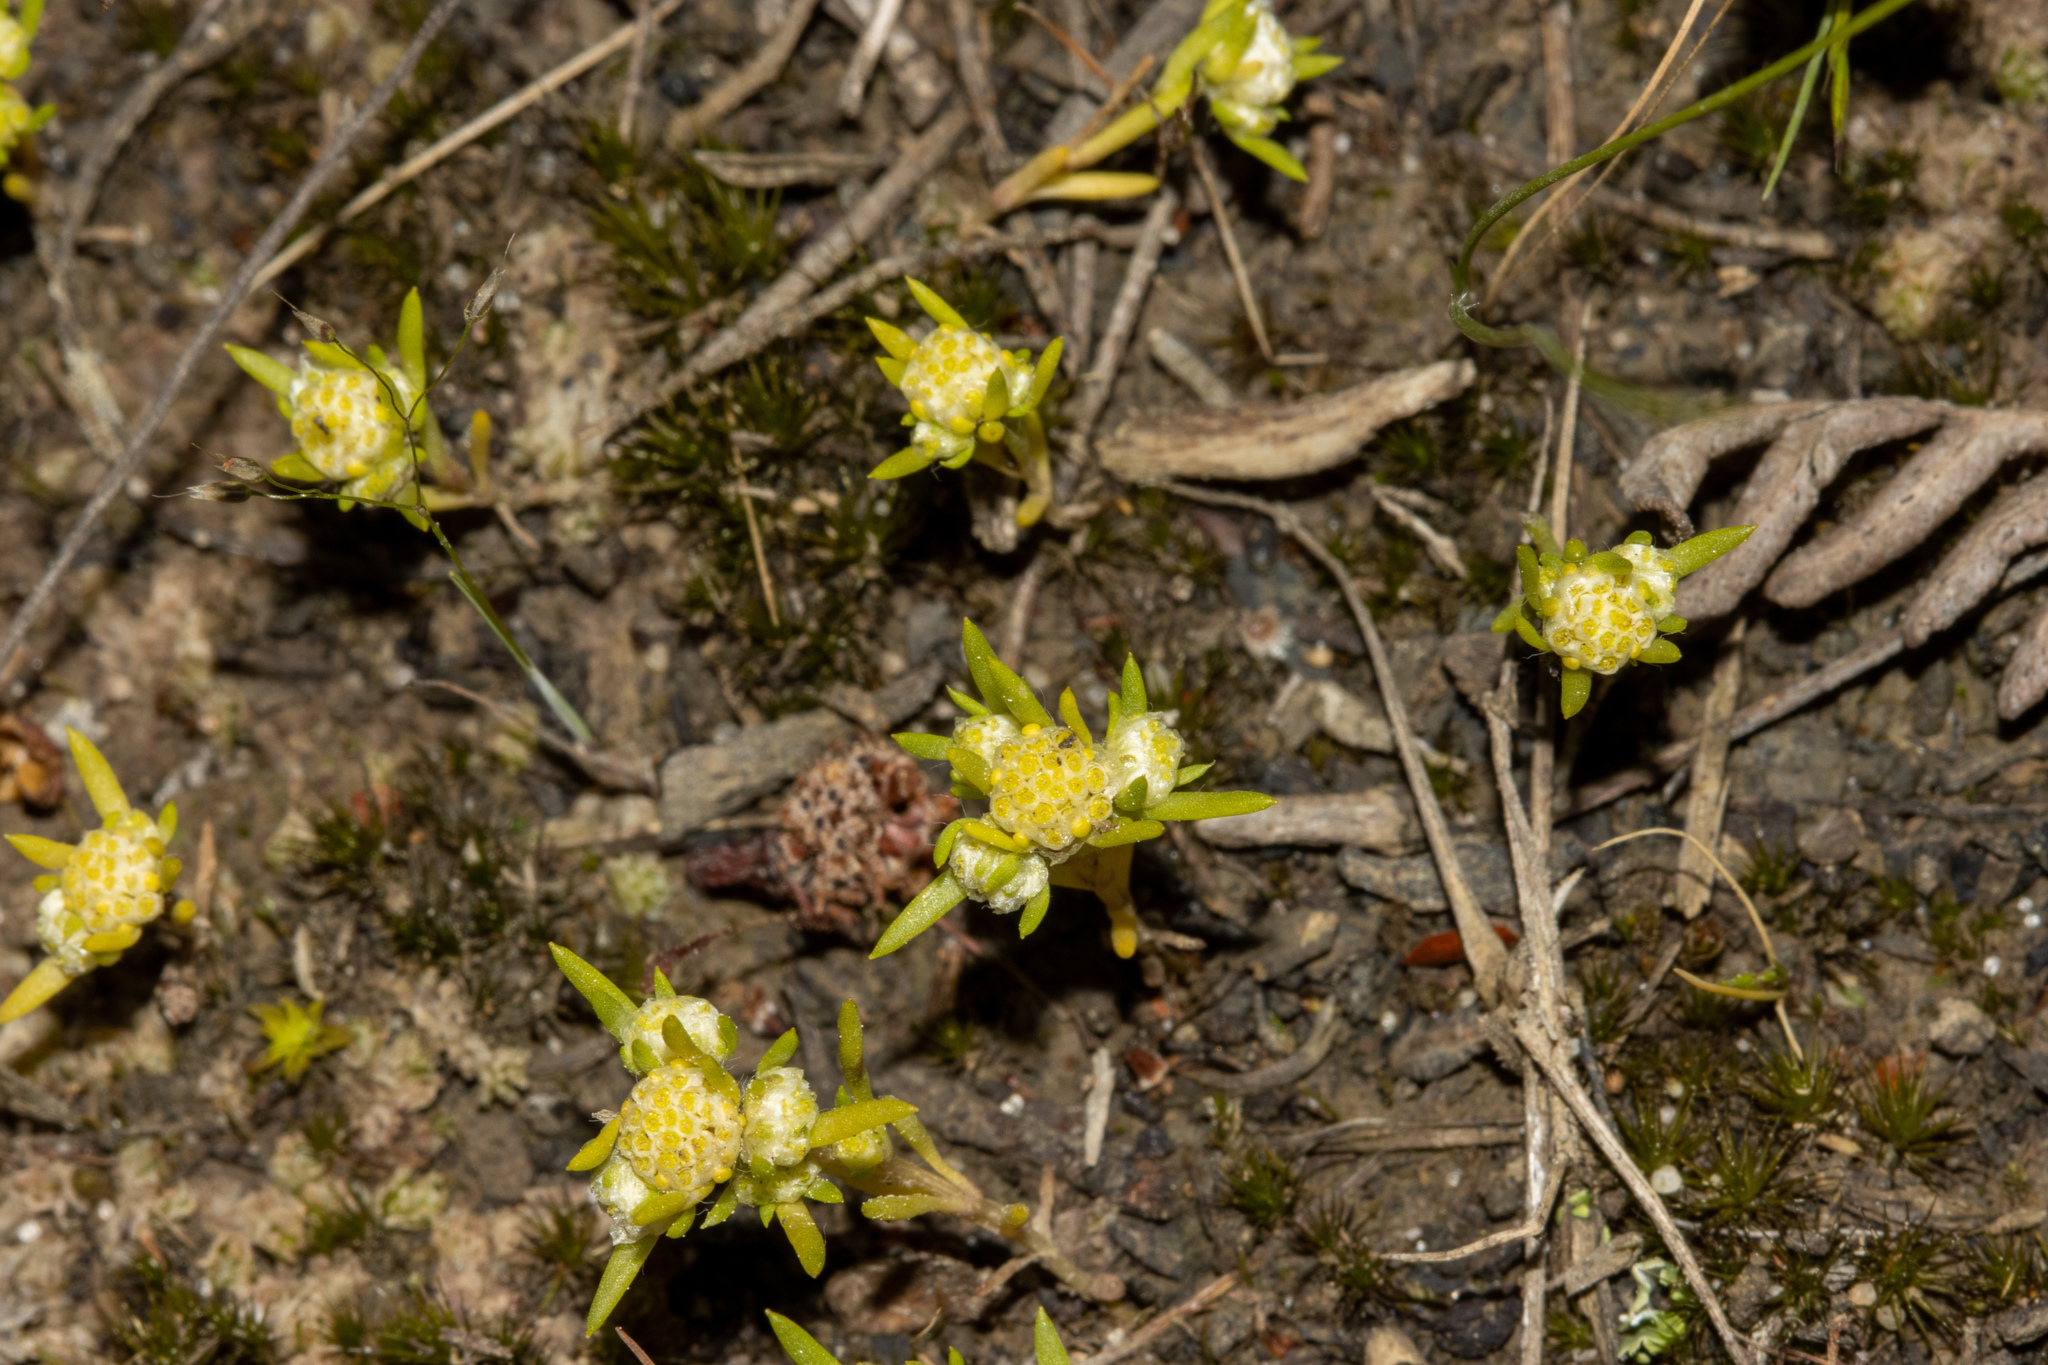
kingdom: Plantae
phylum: Tracheophyta
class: Magnoliopsida
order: Asterales
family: Asteraceae
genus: Siloxerus
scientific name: Siloxerus multiflorus
